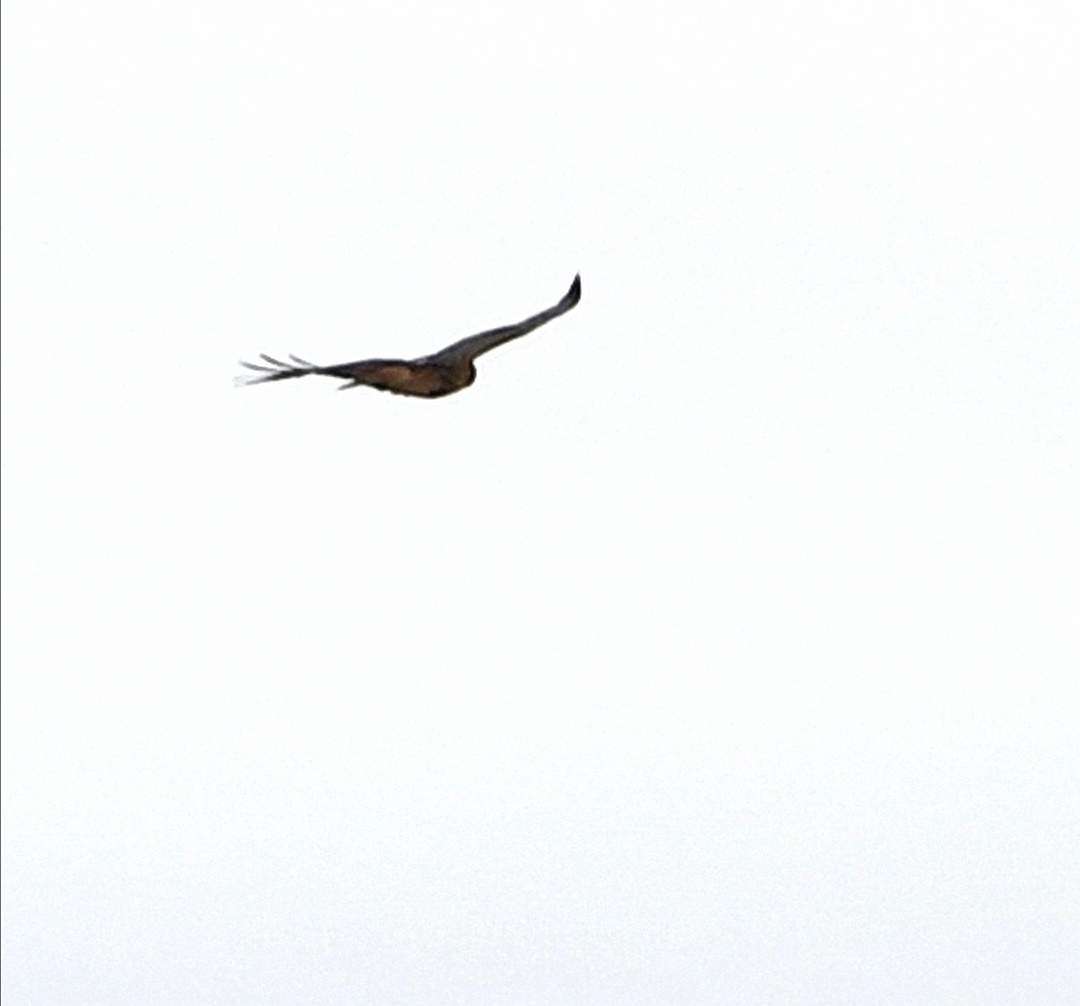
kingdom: Animalia
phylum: Chordata
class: Aves
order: Accipitriformes
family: Accipitridae
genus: Buteo
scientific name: Buteo lagopus
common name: Rough-legged buzzard
